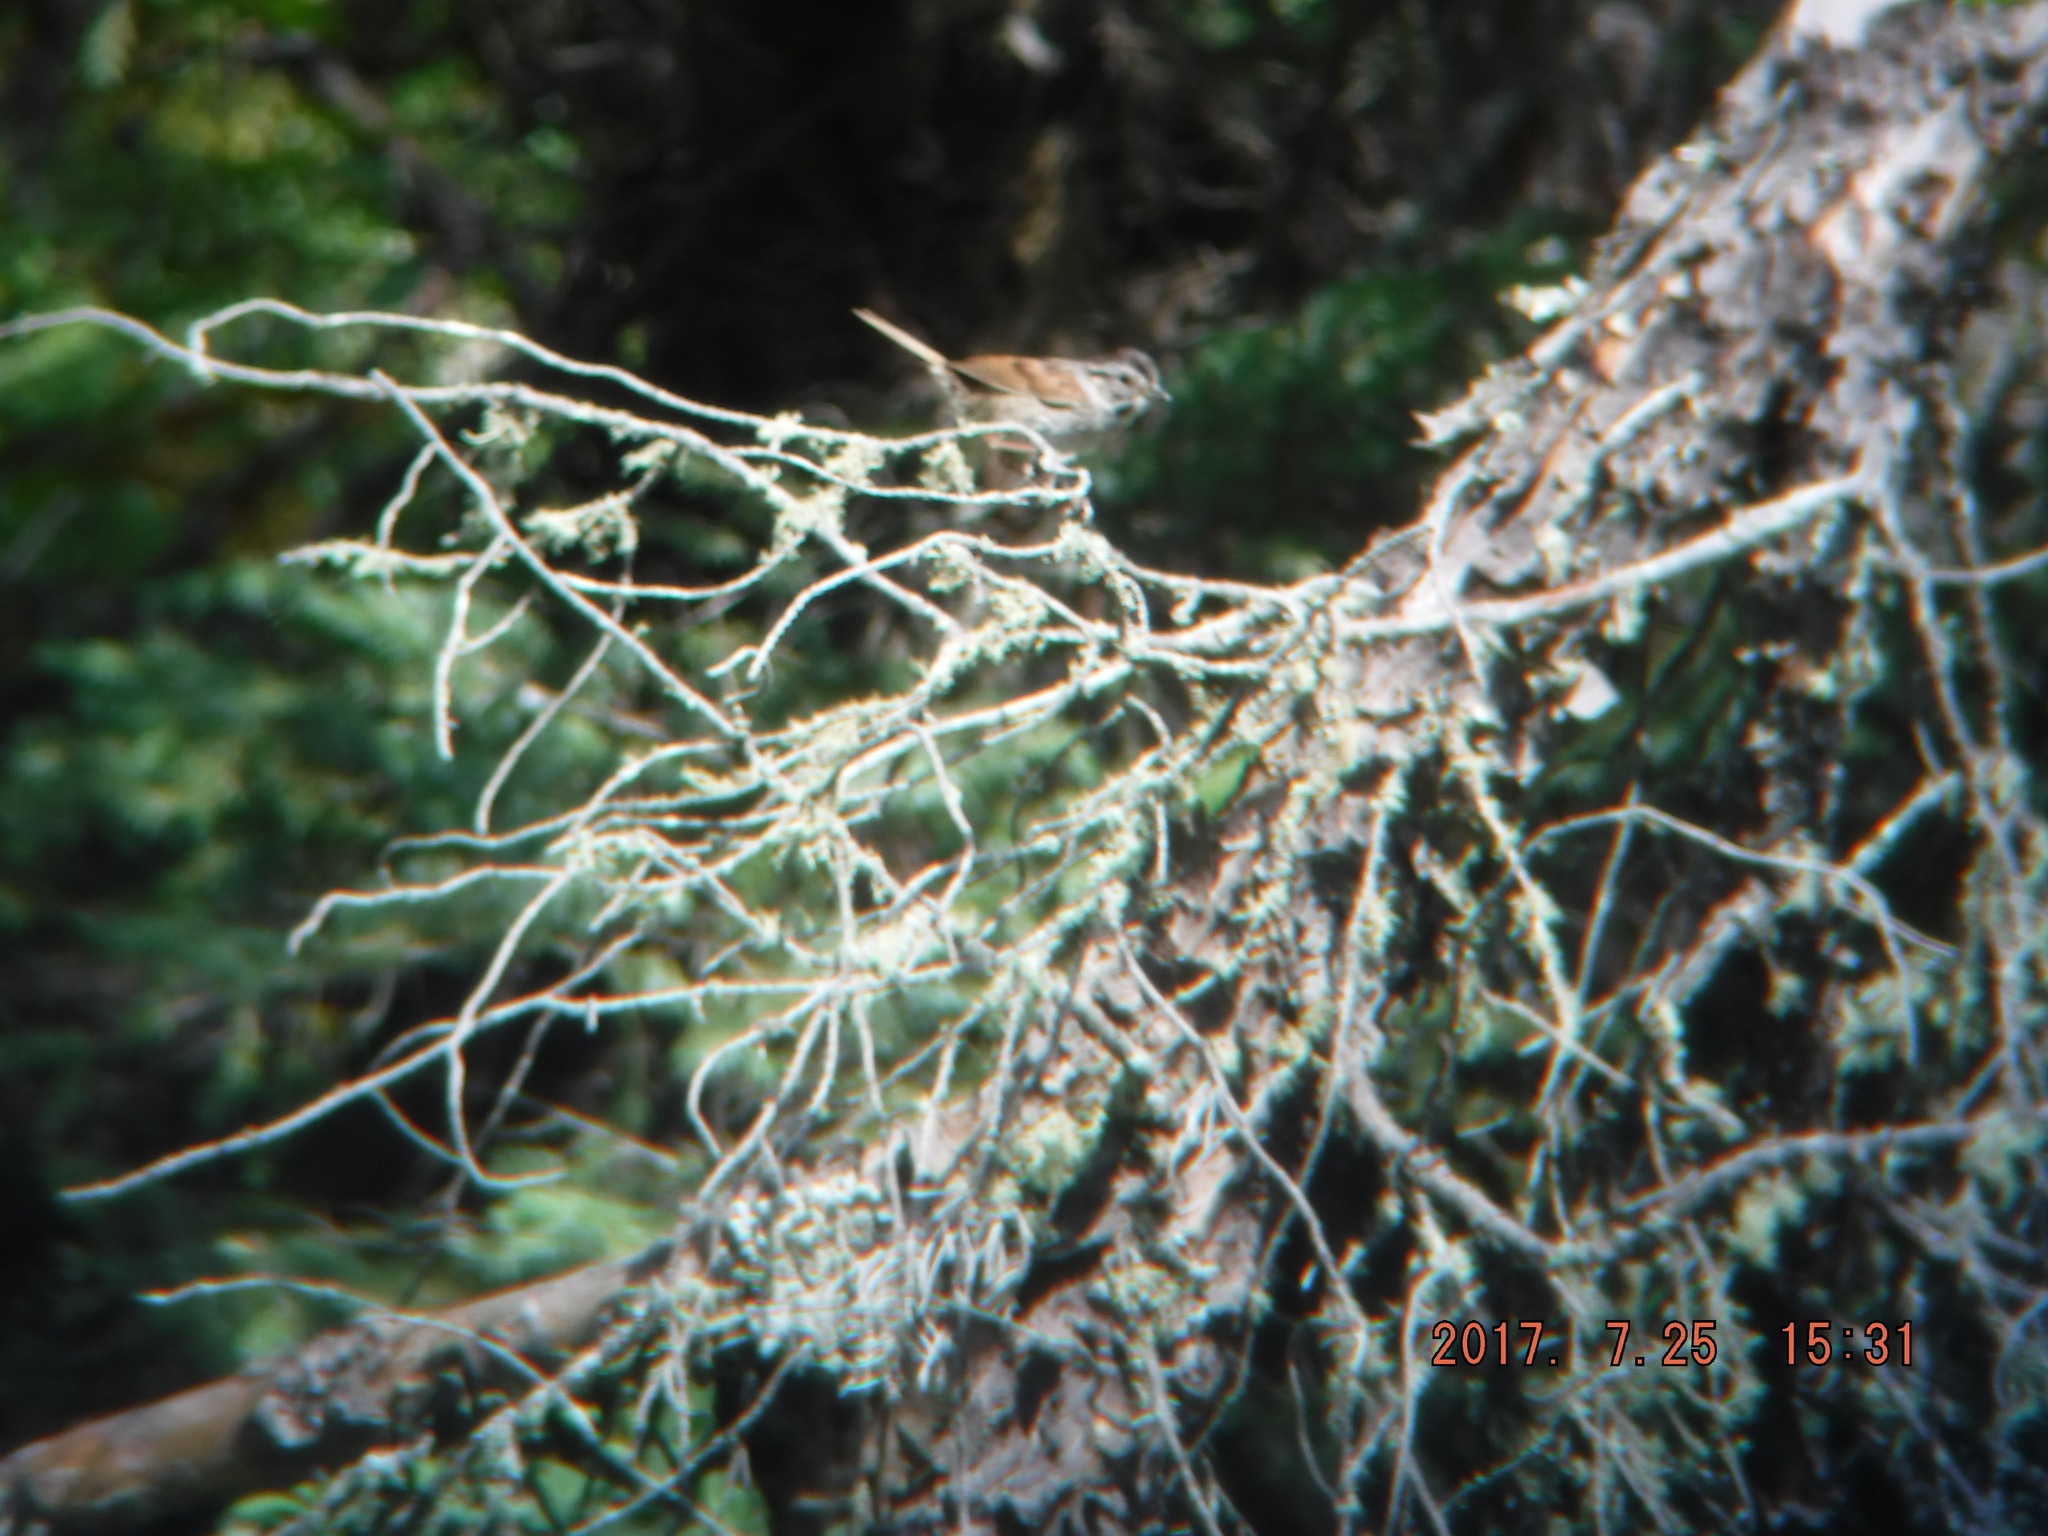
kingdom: Animalia
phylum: Chordata
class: Aves
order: Passeriformes
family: Passerellidae
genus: Melospiza
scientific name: Melospiza georgiana
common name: Swamp sparrow
